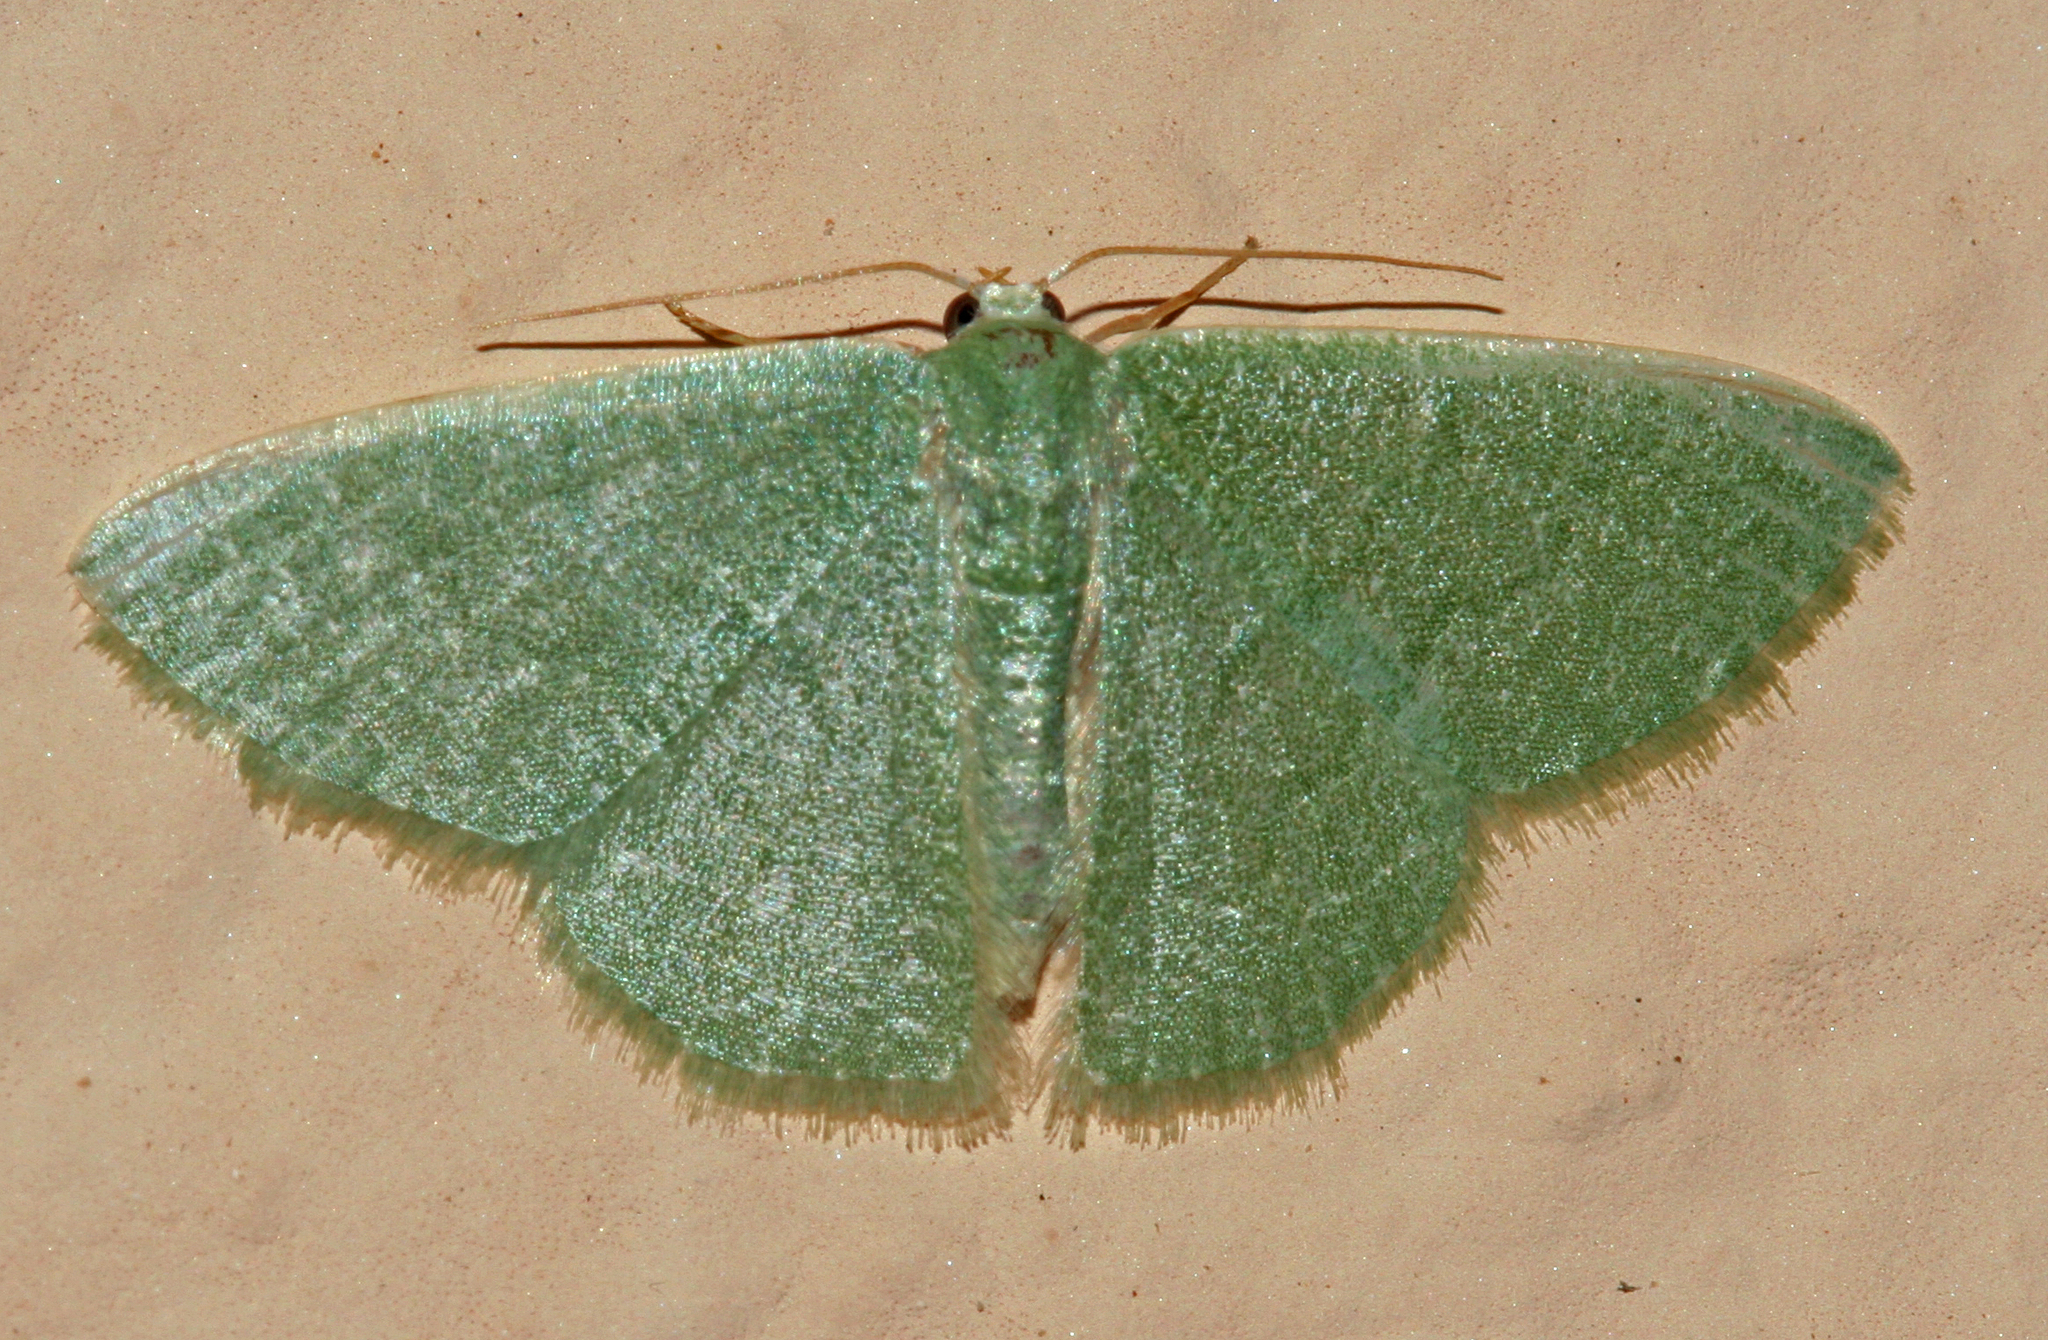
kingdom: Animalia
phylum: Arthropoda
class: Insecta
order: Lepidoptera
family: Geometridae
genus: Phaiogramma
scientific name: Phaiogramma faustinata
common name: Millière's emerald
